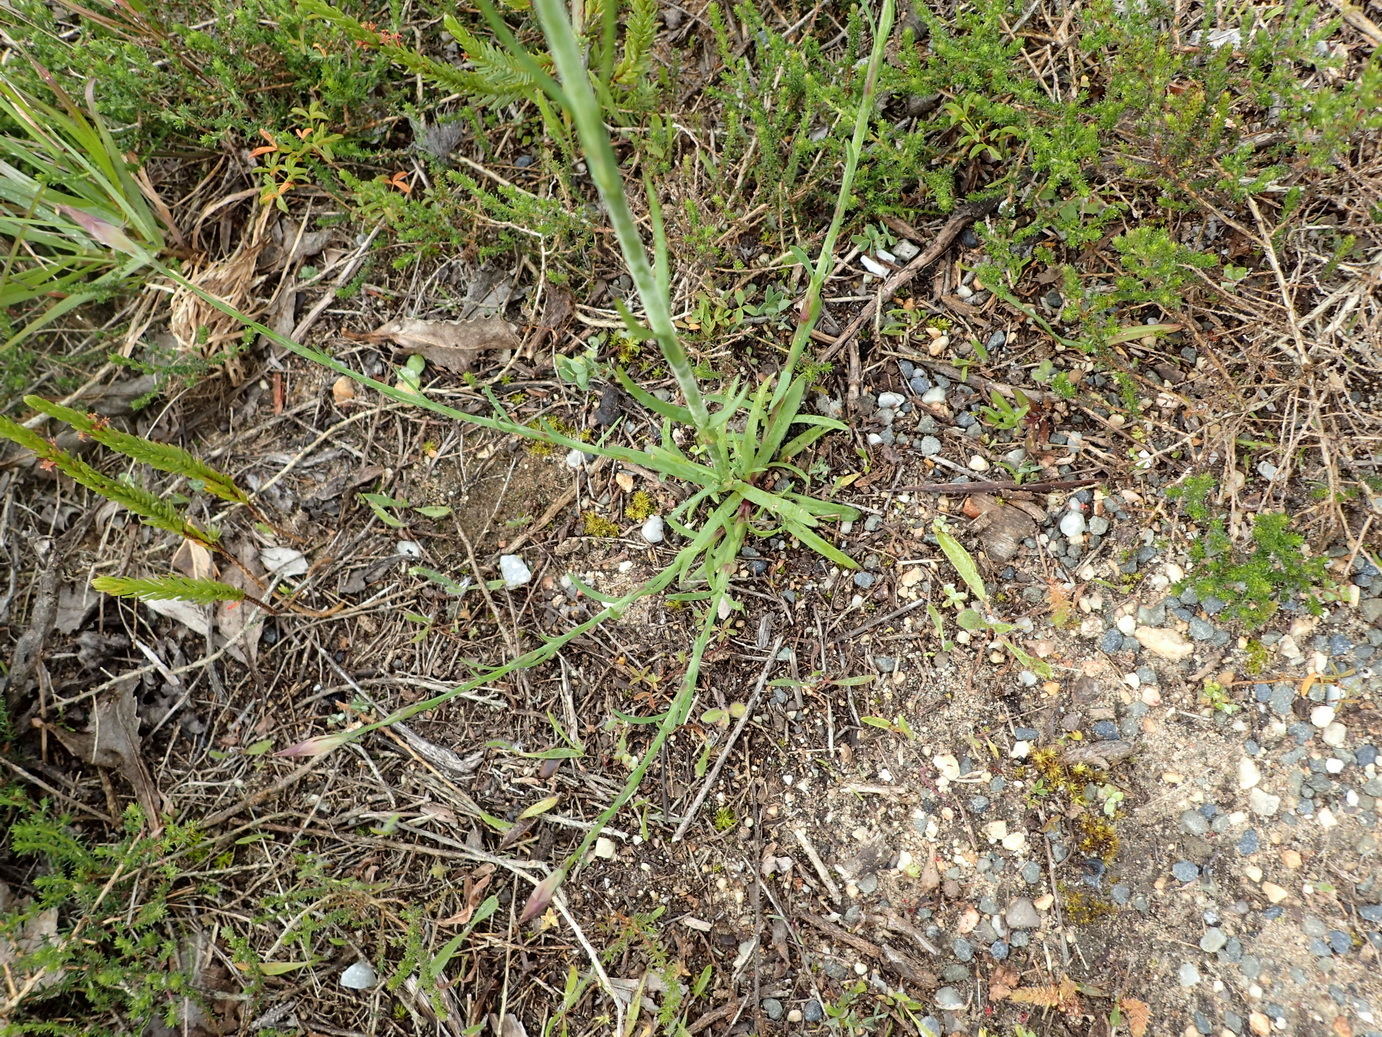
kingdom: Plantae
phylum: Tracheophyta
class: Magnoliopsida
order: Caryophyllales
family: Caryophyllaceae
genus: Petrorhagia
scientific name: Petrorhagia prolifera
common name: Proliferous pink
